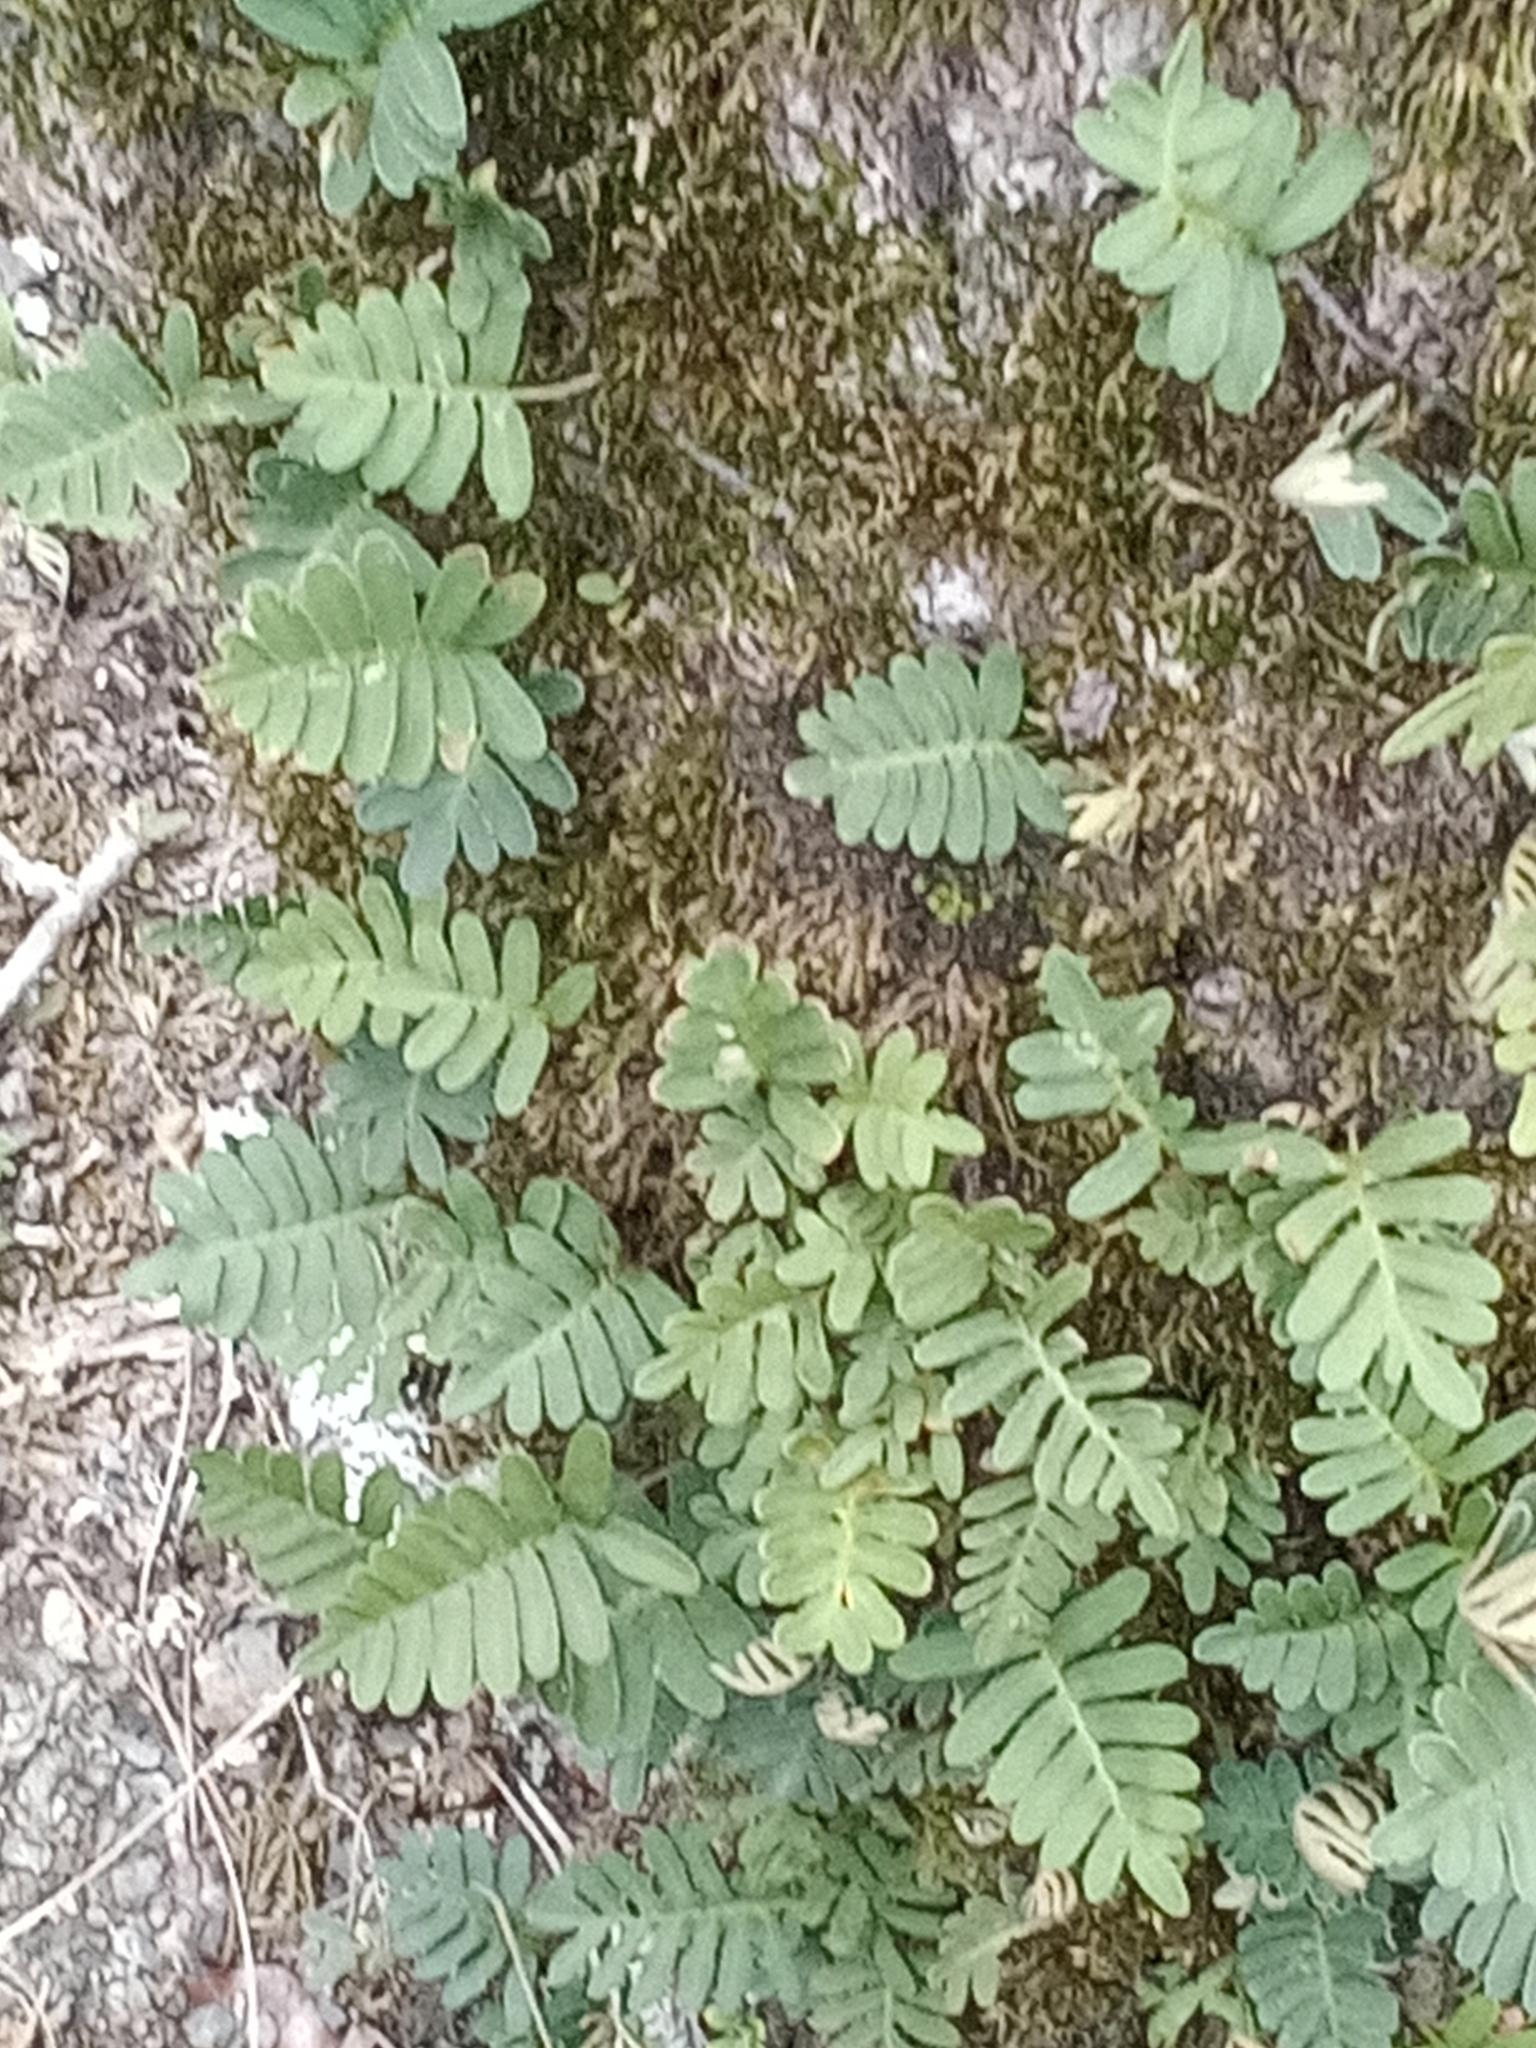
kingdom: Plantae
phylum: Tracheophyta
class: Polypodiopsida
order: Polypodiales
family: Polypodiaceae
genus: Pleopeltis
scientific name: Pleopeltis michauxiana
